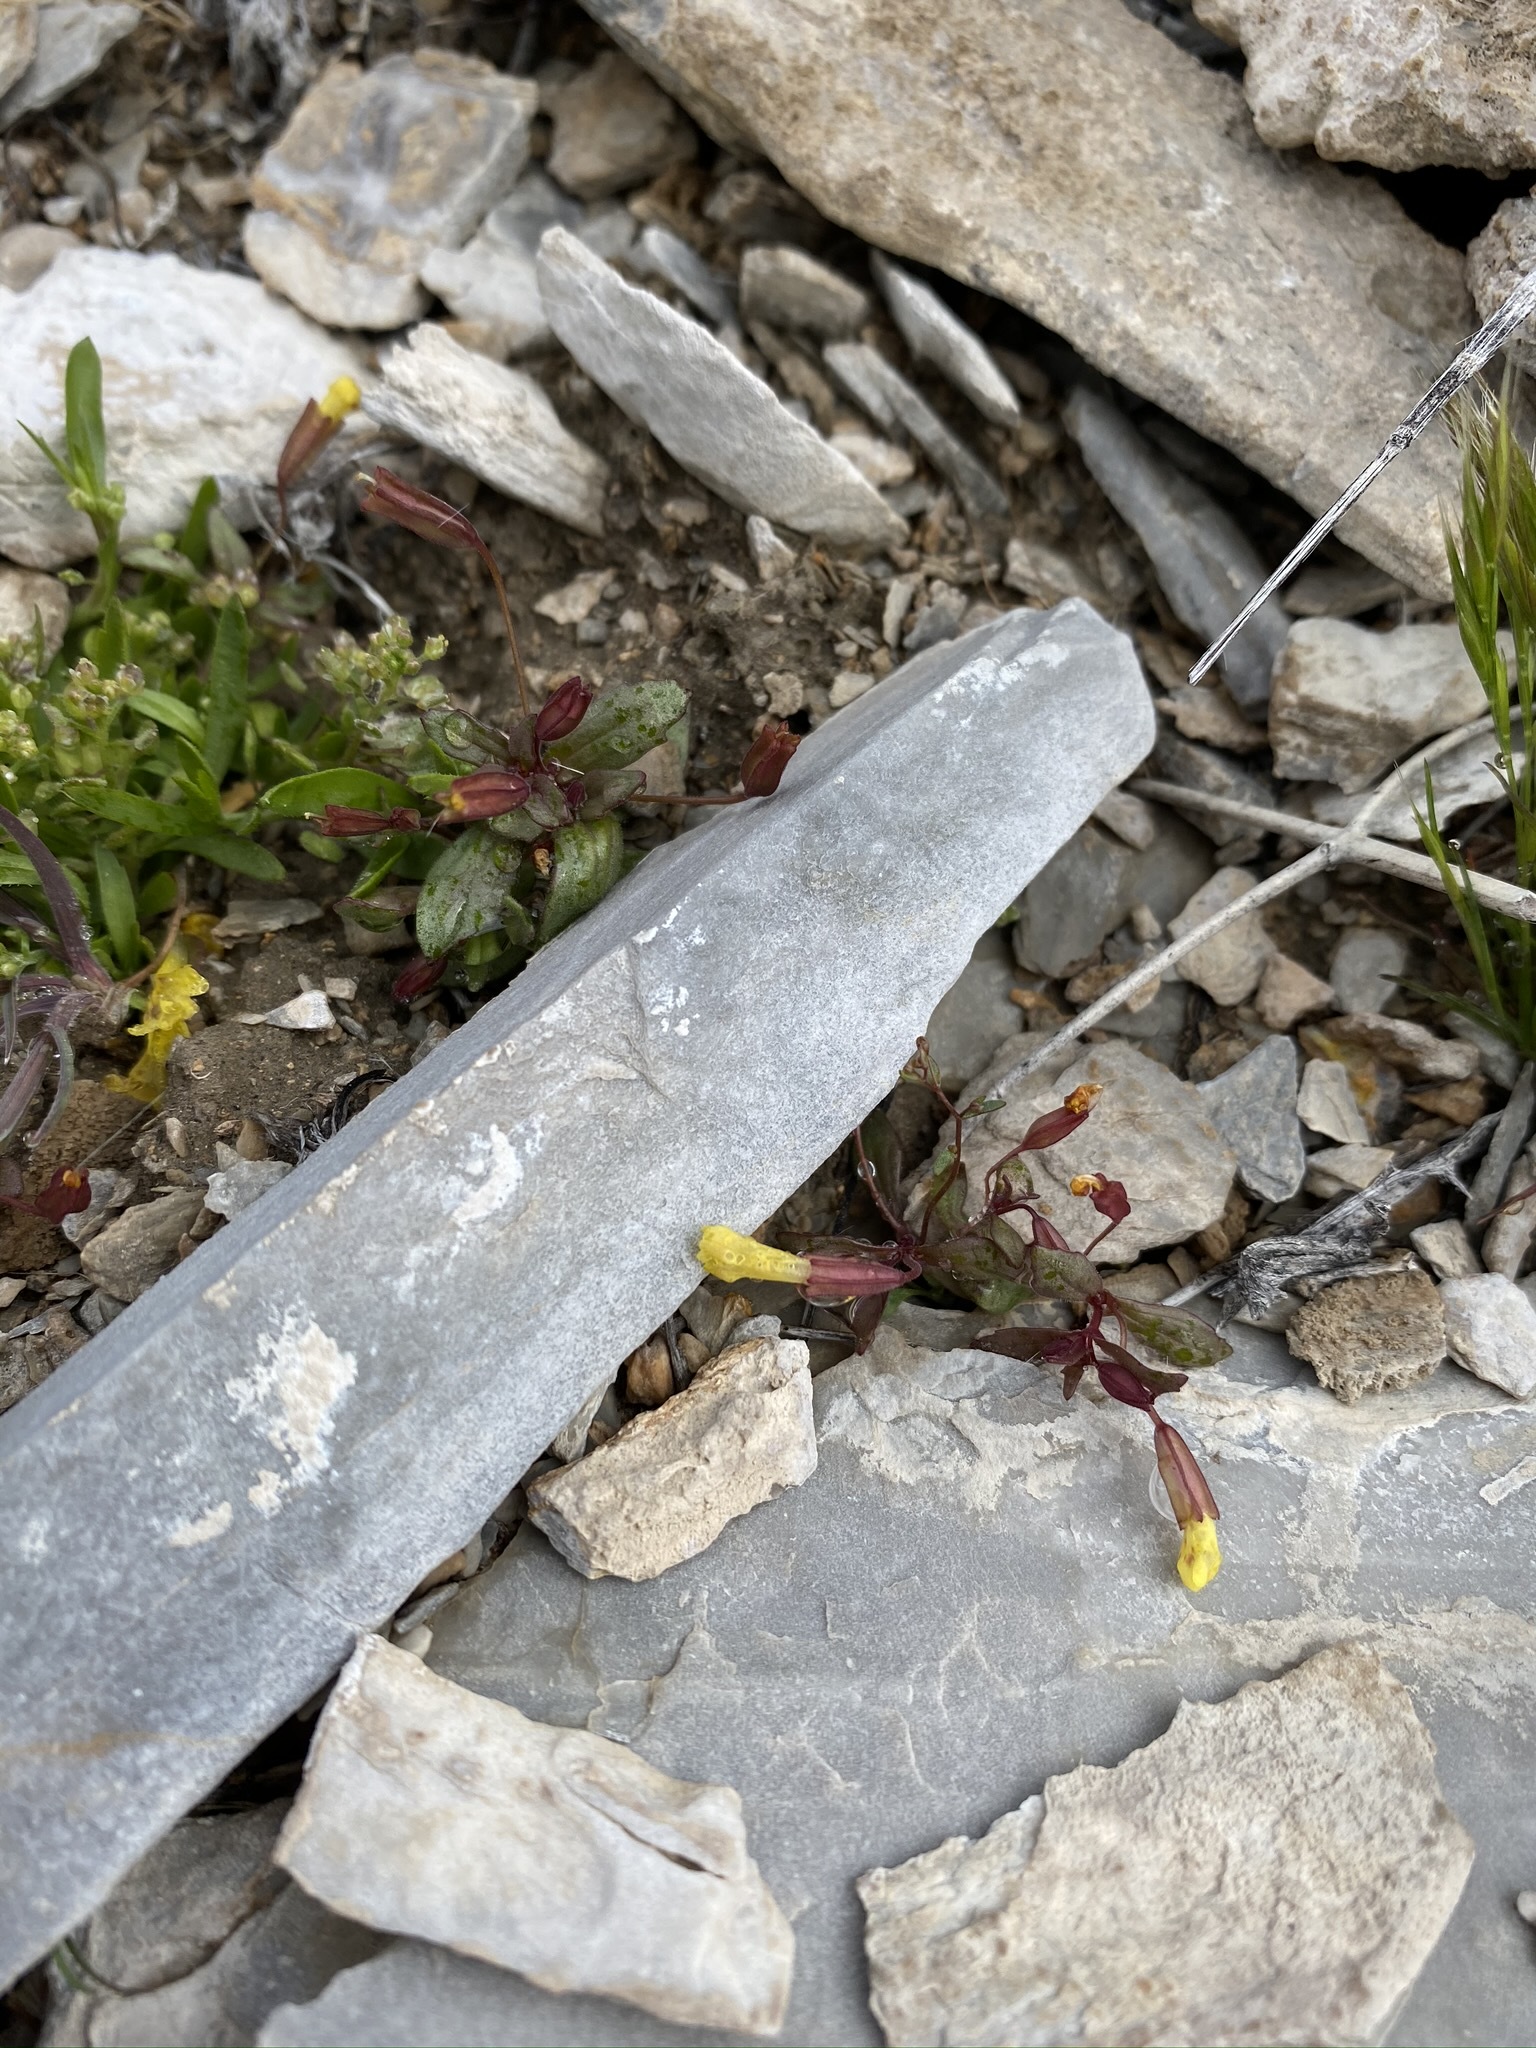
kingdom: Plantae
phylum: Tracheophyta
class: Magnoliopsida
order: Lamiales
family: Phrymaceae
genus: Erythranthe
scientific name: Erythranthe calcicola
